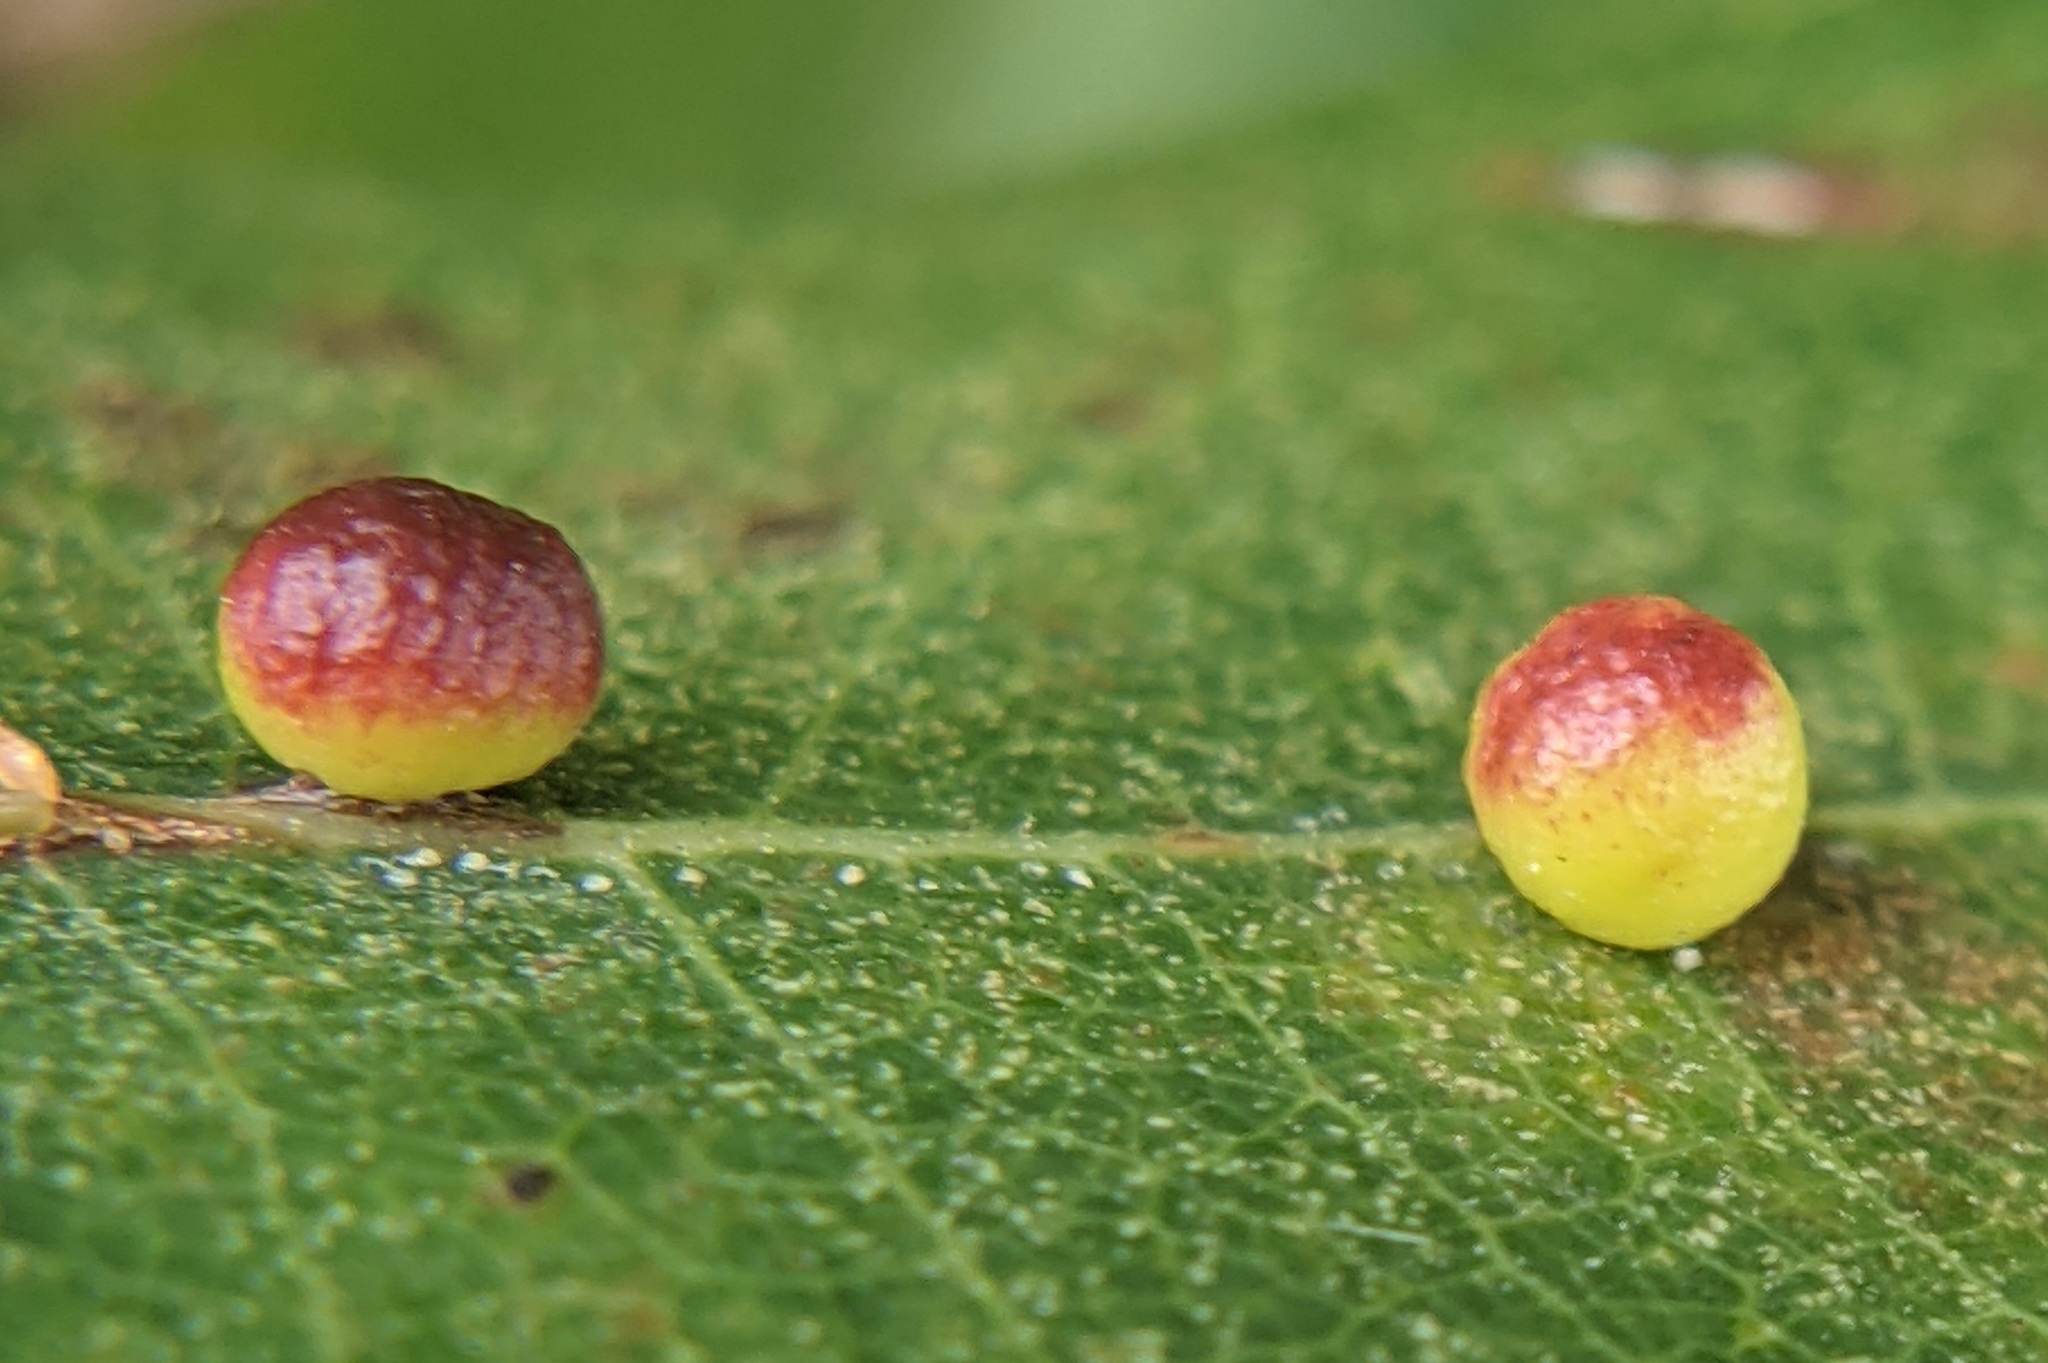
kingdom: Animalia
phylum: Arthropoda
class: Insecta
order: Hymenoptera
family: Cynipidae
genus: Zopheroteras
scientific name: Zopheroteras
